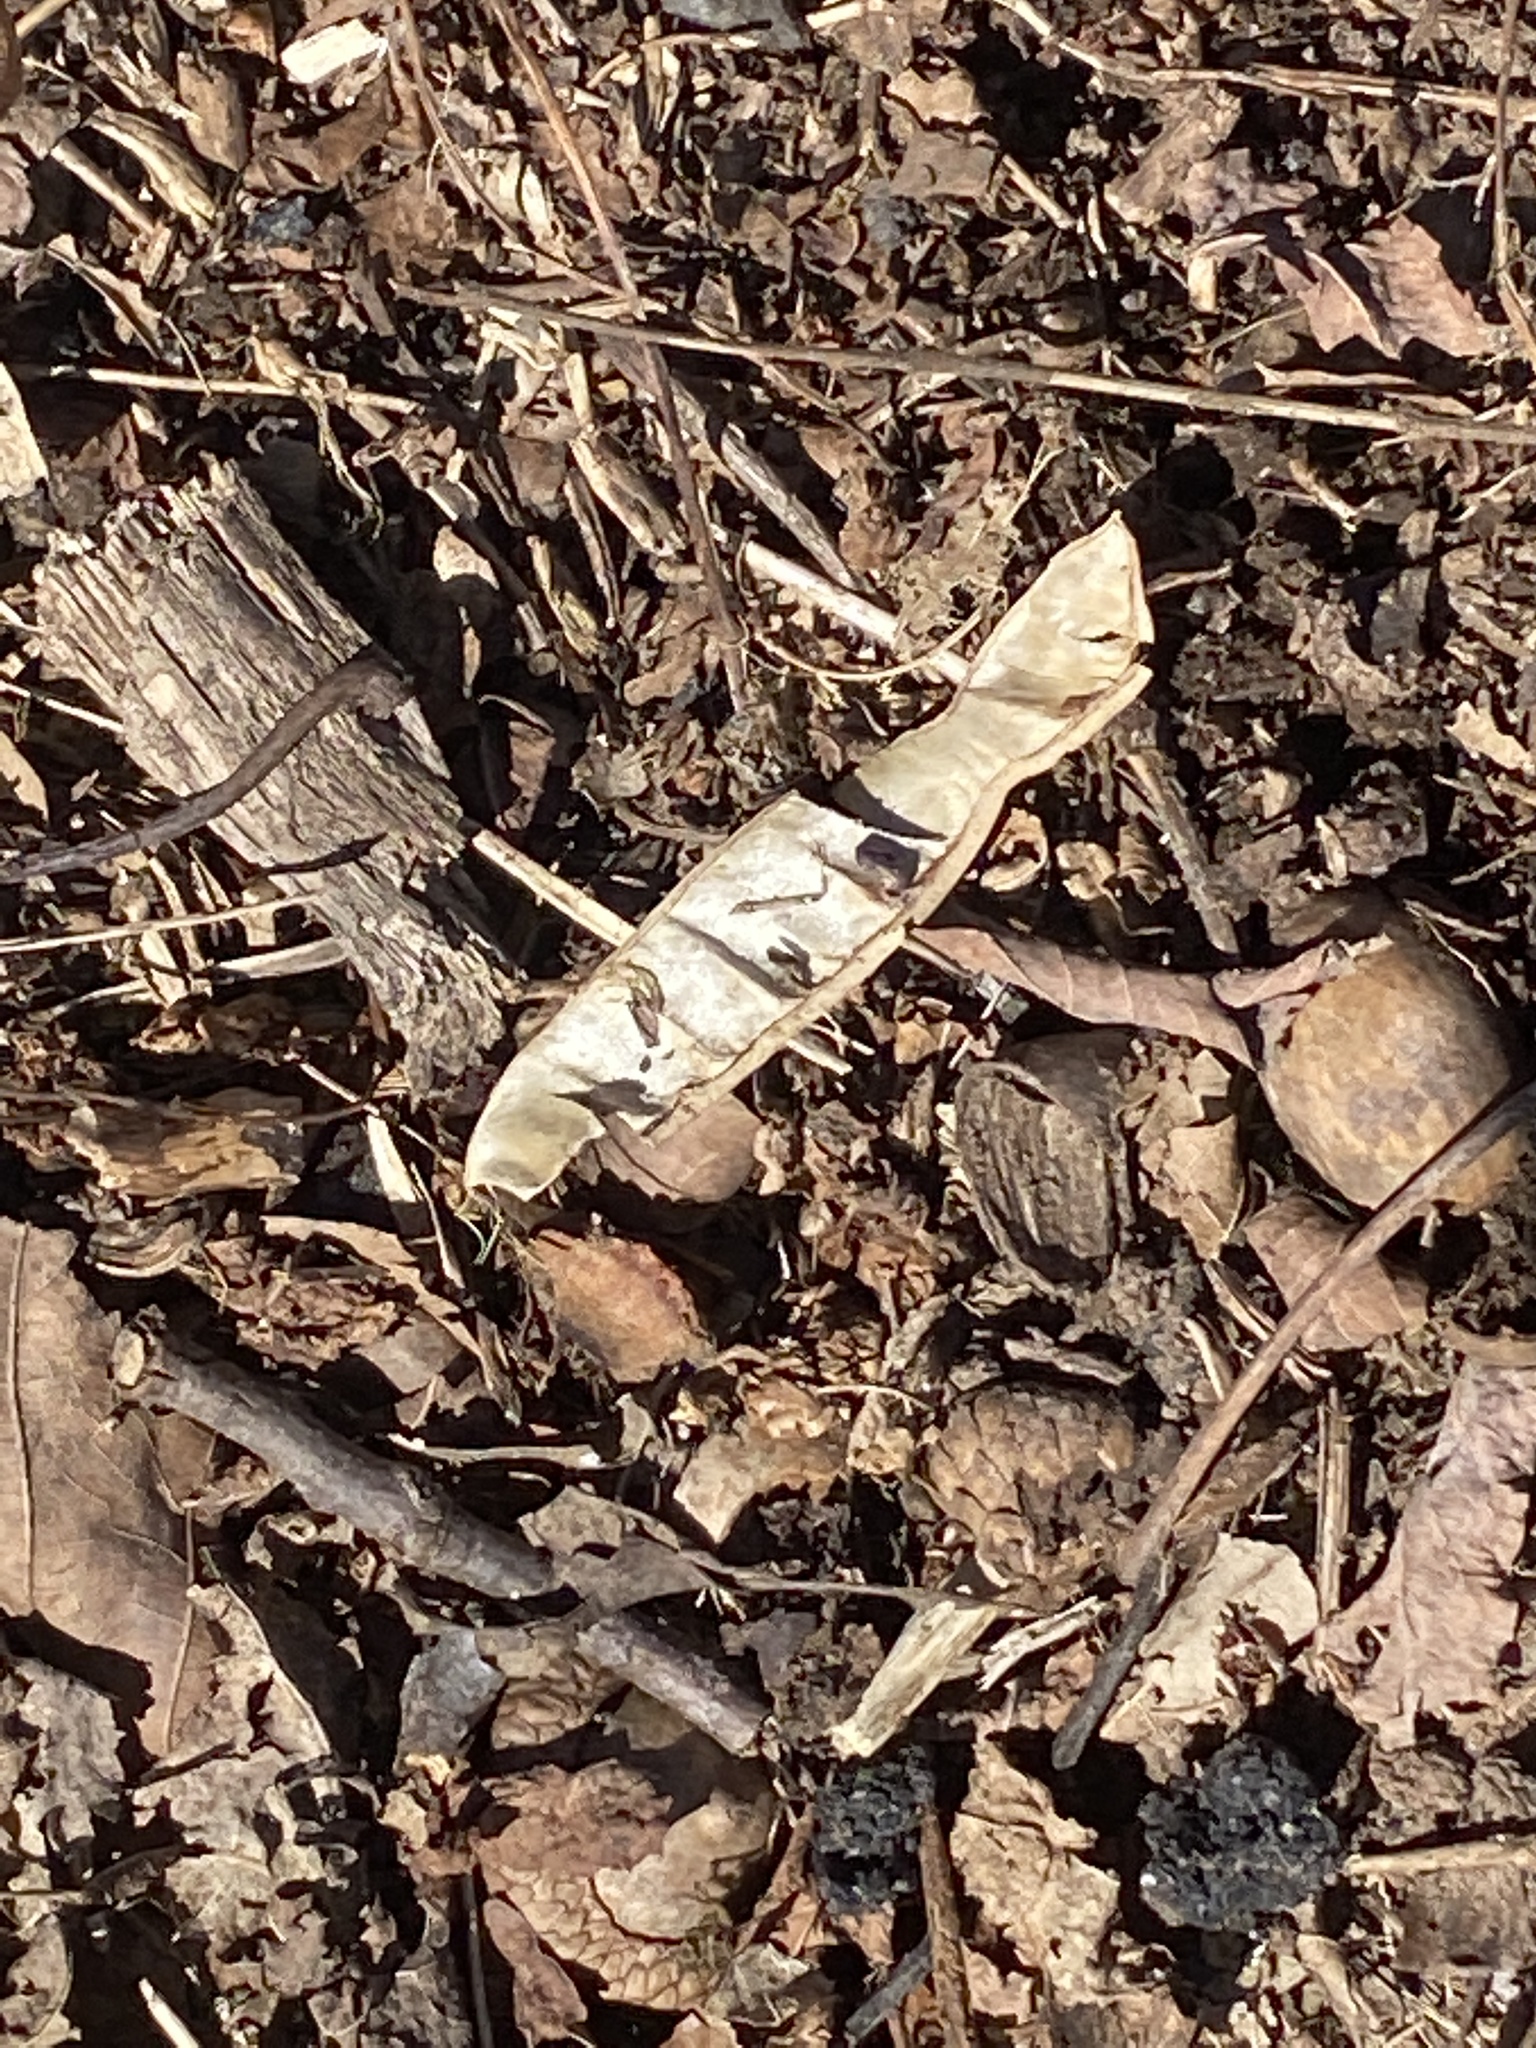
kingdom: Plantae
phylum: Tracheophyta
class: Magnoliopsida
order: Fabales
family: Fabaceae
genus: Robinia
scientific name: Robinia pseudoacacia
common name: Black locust
